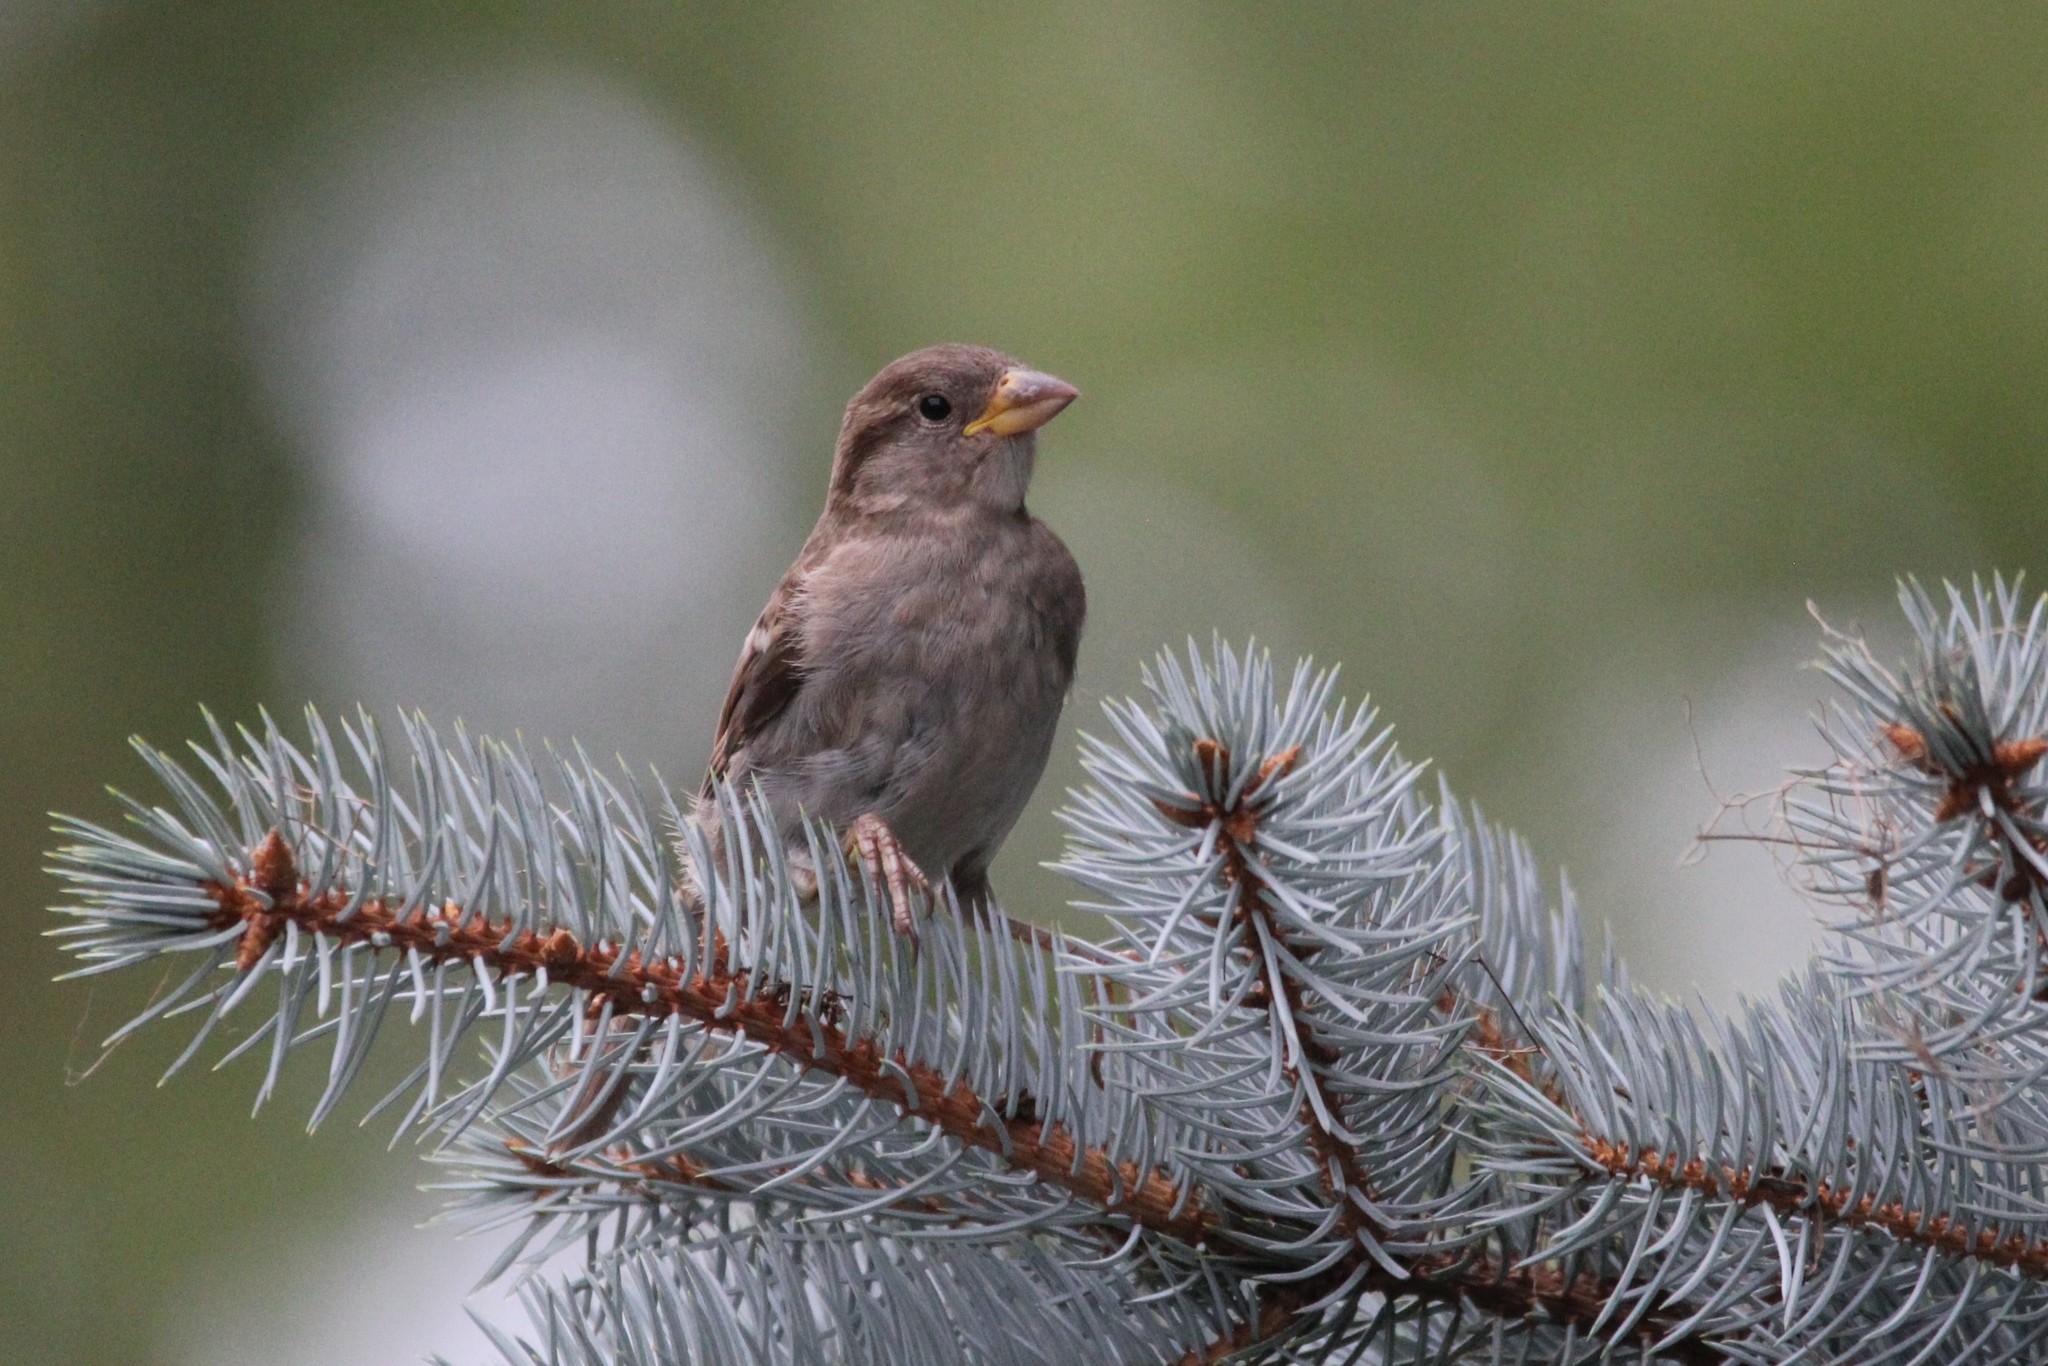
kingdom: Animalia
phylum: Chordata
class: Aves
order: Passeriformes
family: Passeridae
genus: Passer
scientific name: Passer domesticus
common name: House sparrow
